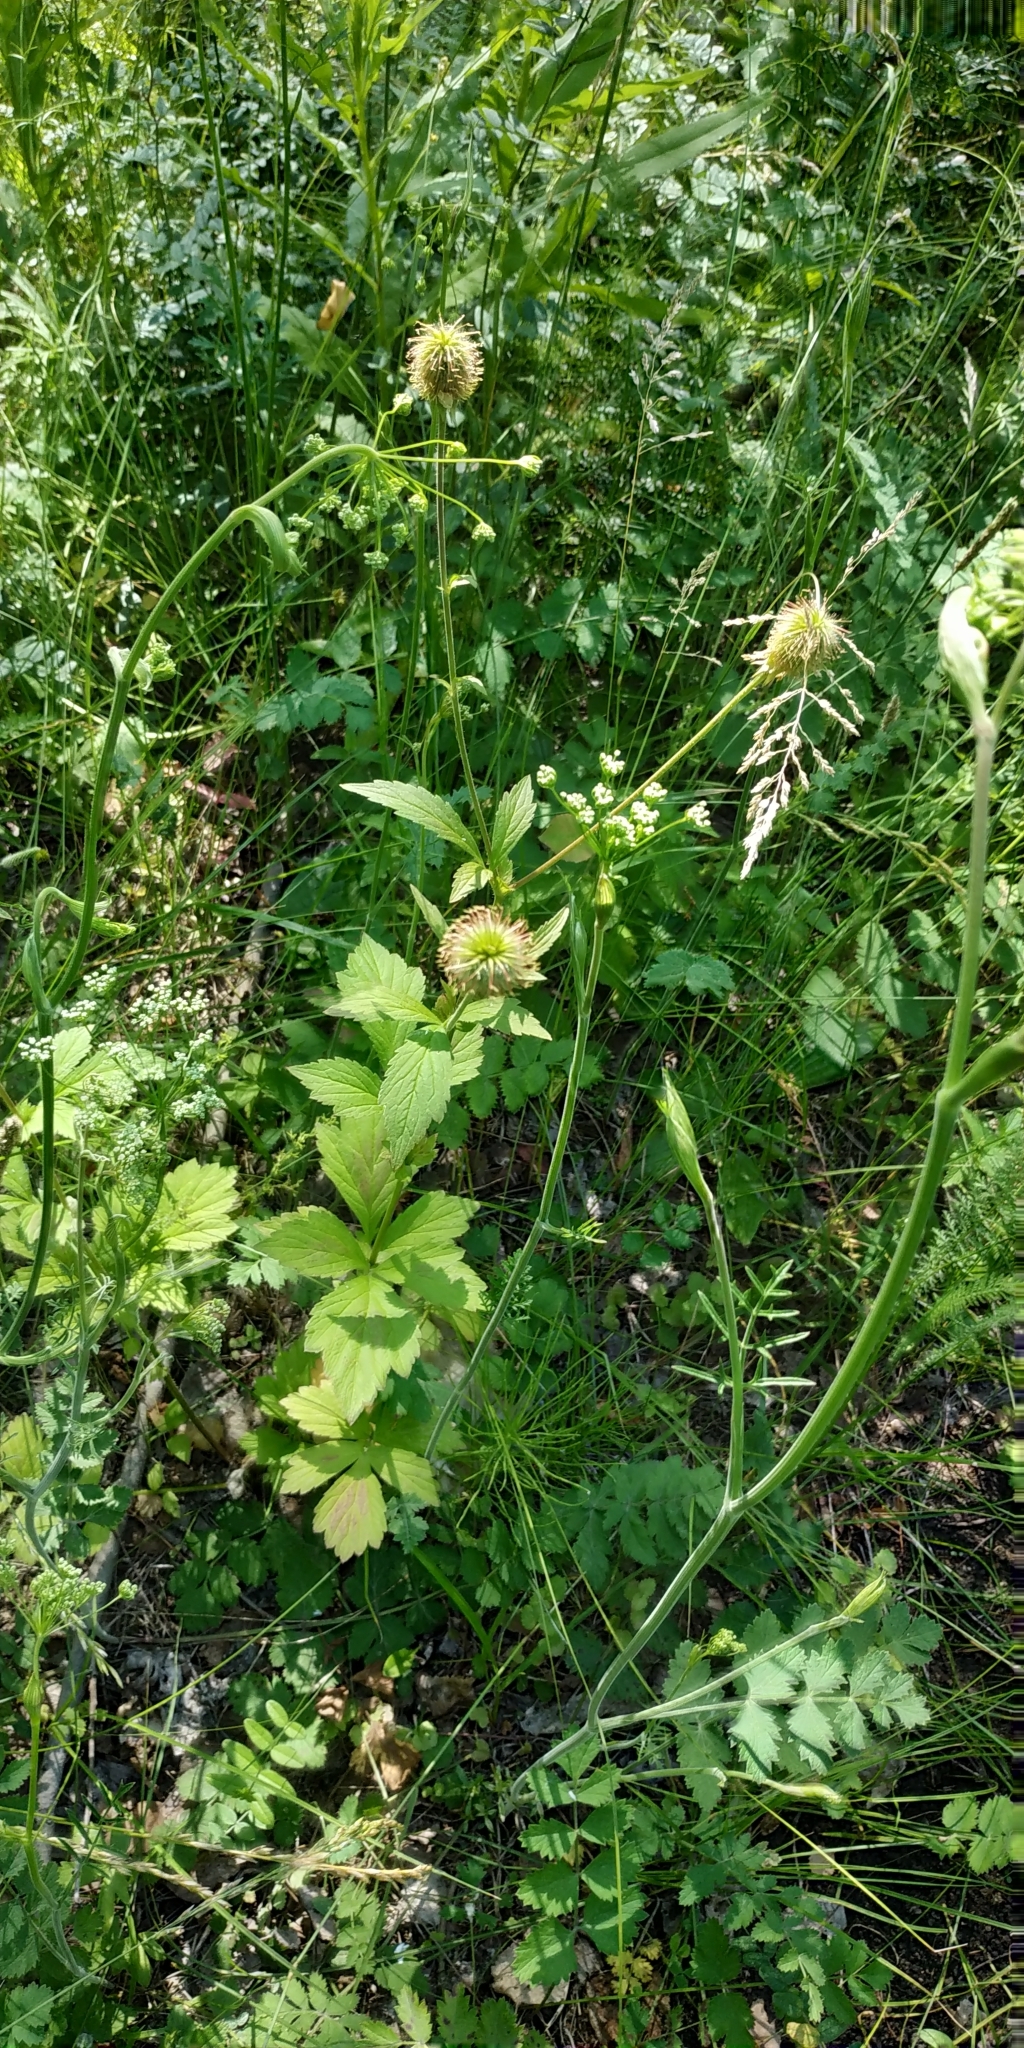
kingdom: Plantae
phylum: Tracheophyta
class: Magnoliopsida
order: Rosales
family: Rosaceae
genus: Geum
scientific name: Geum aleppicum
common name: Yellow avens
